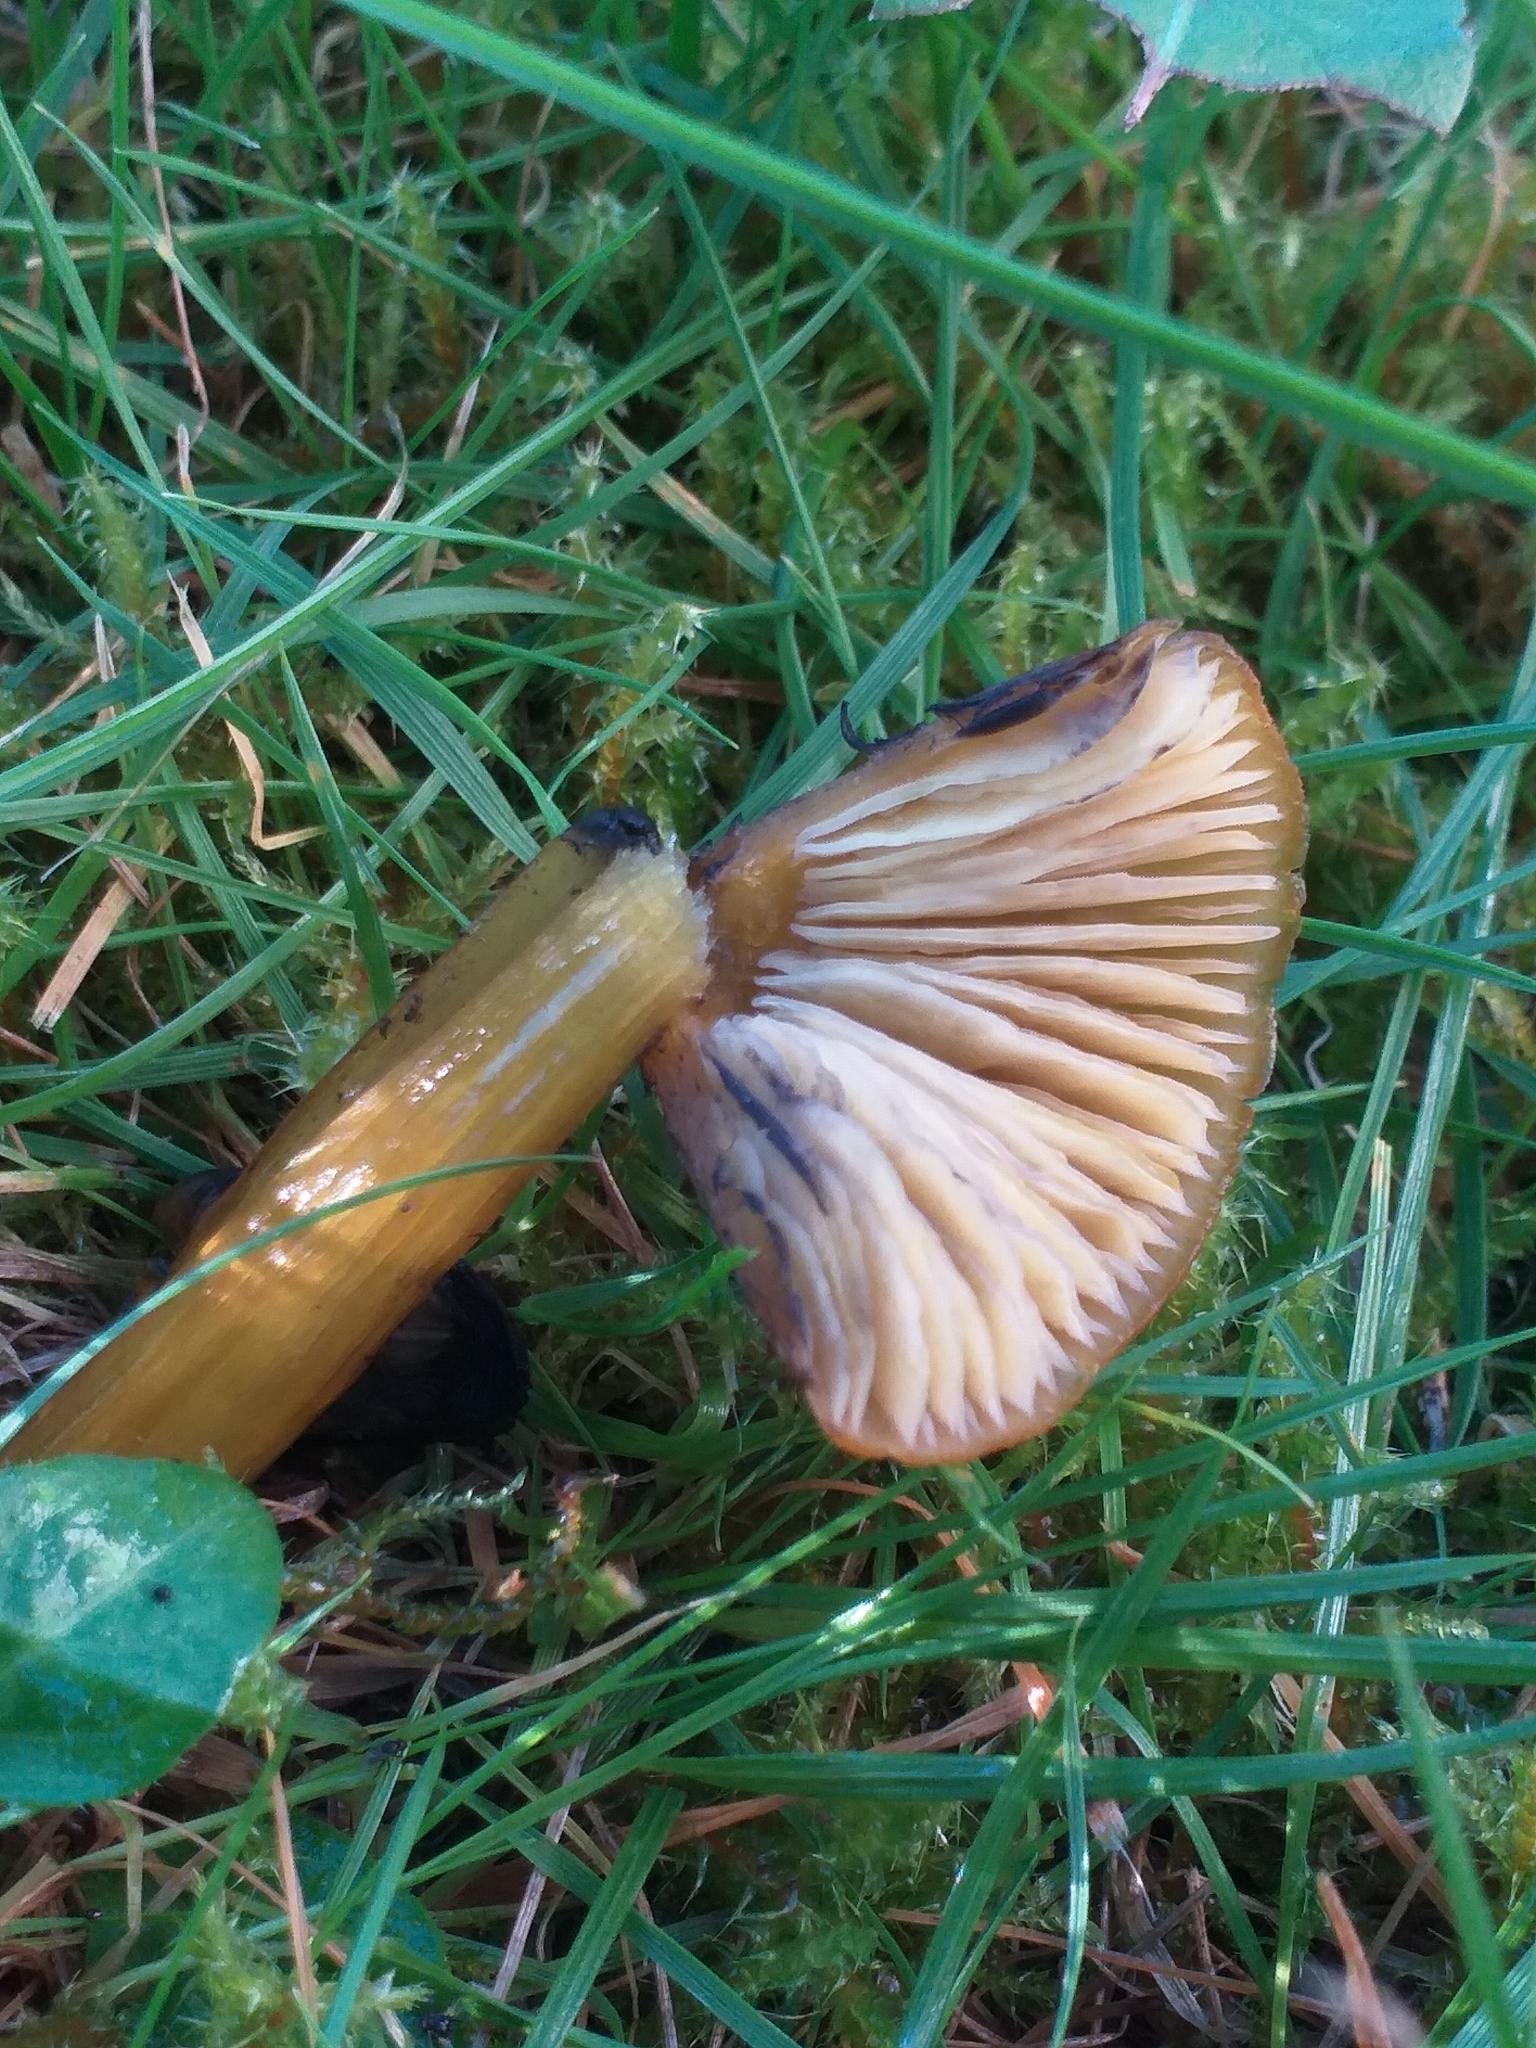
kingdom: Fungi
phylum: Basidiomycota
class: Agaricomycetes
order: Agaricales
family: Hygrophoraceae
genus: Hygrocybe
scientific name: Hygrocybe conica
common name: Blackening wax-cap
